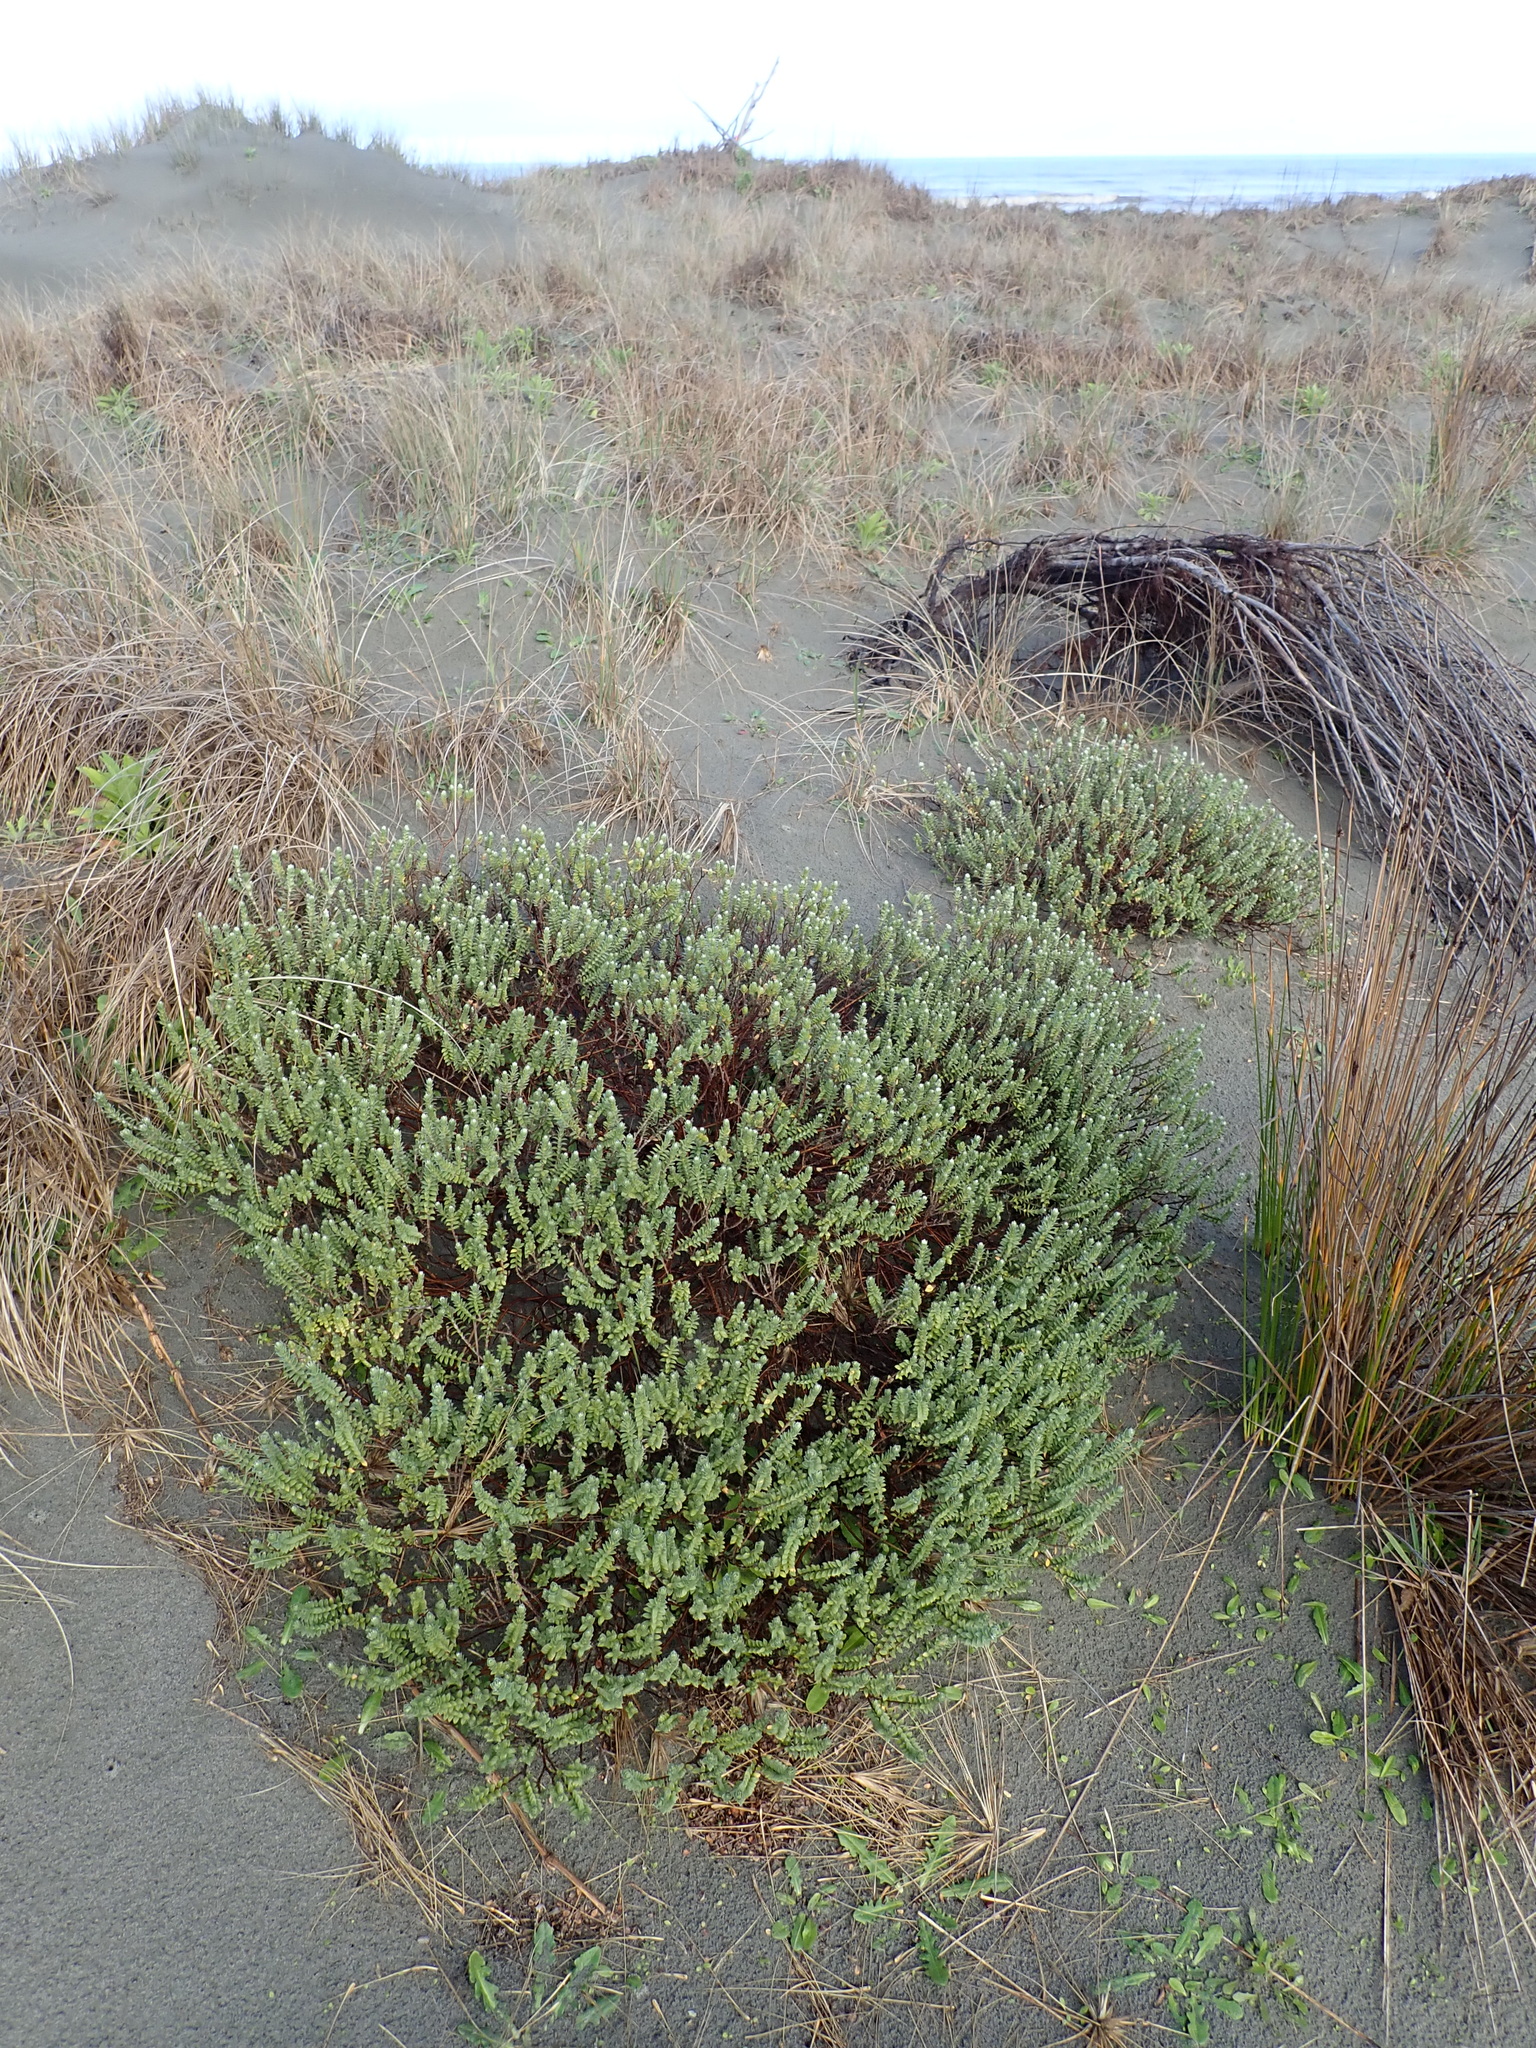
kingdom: Plantae
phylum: Tracheophyta
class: Magnoliopsida
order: Malvales
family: Thymelaeaceae
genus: Pimelea
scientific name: Pimelea villosa
